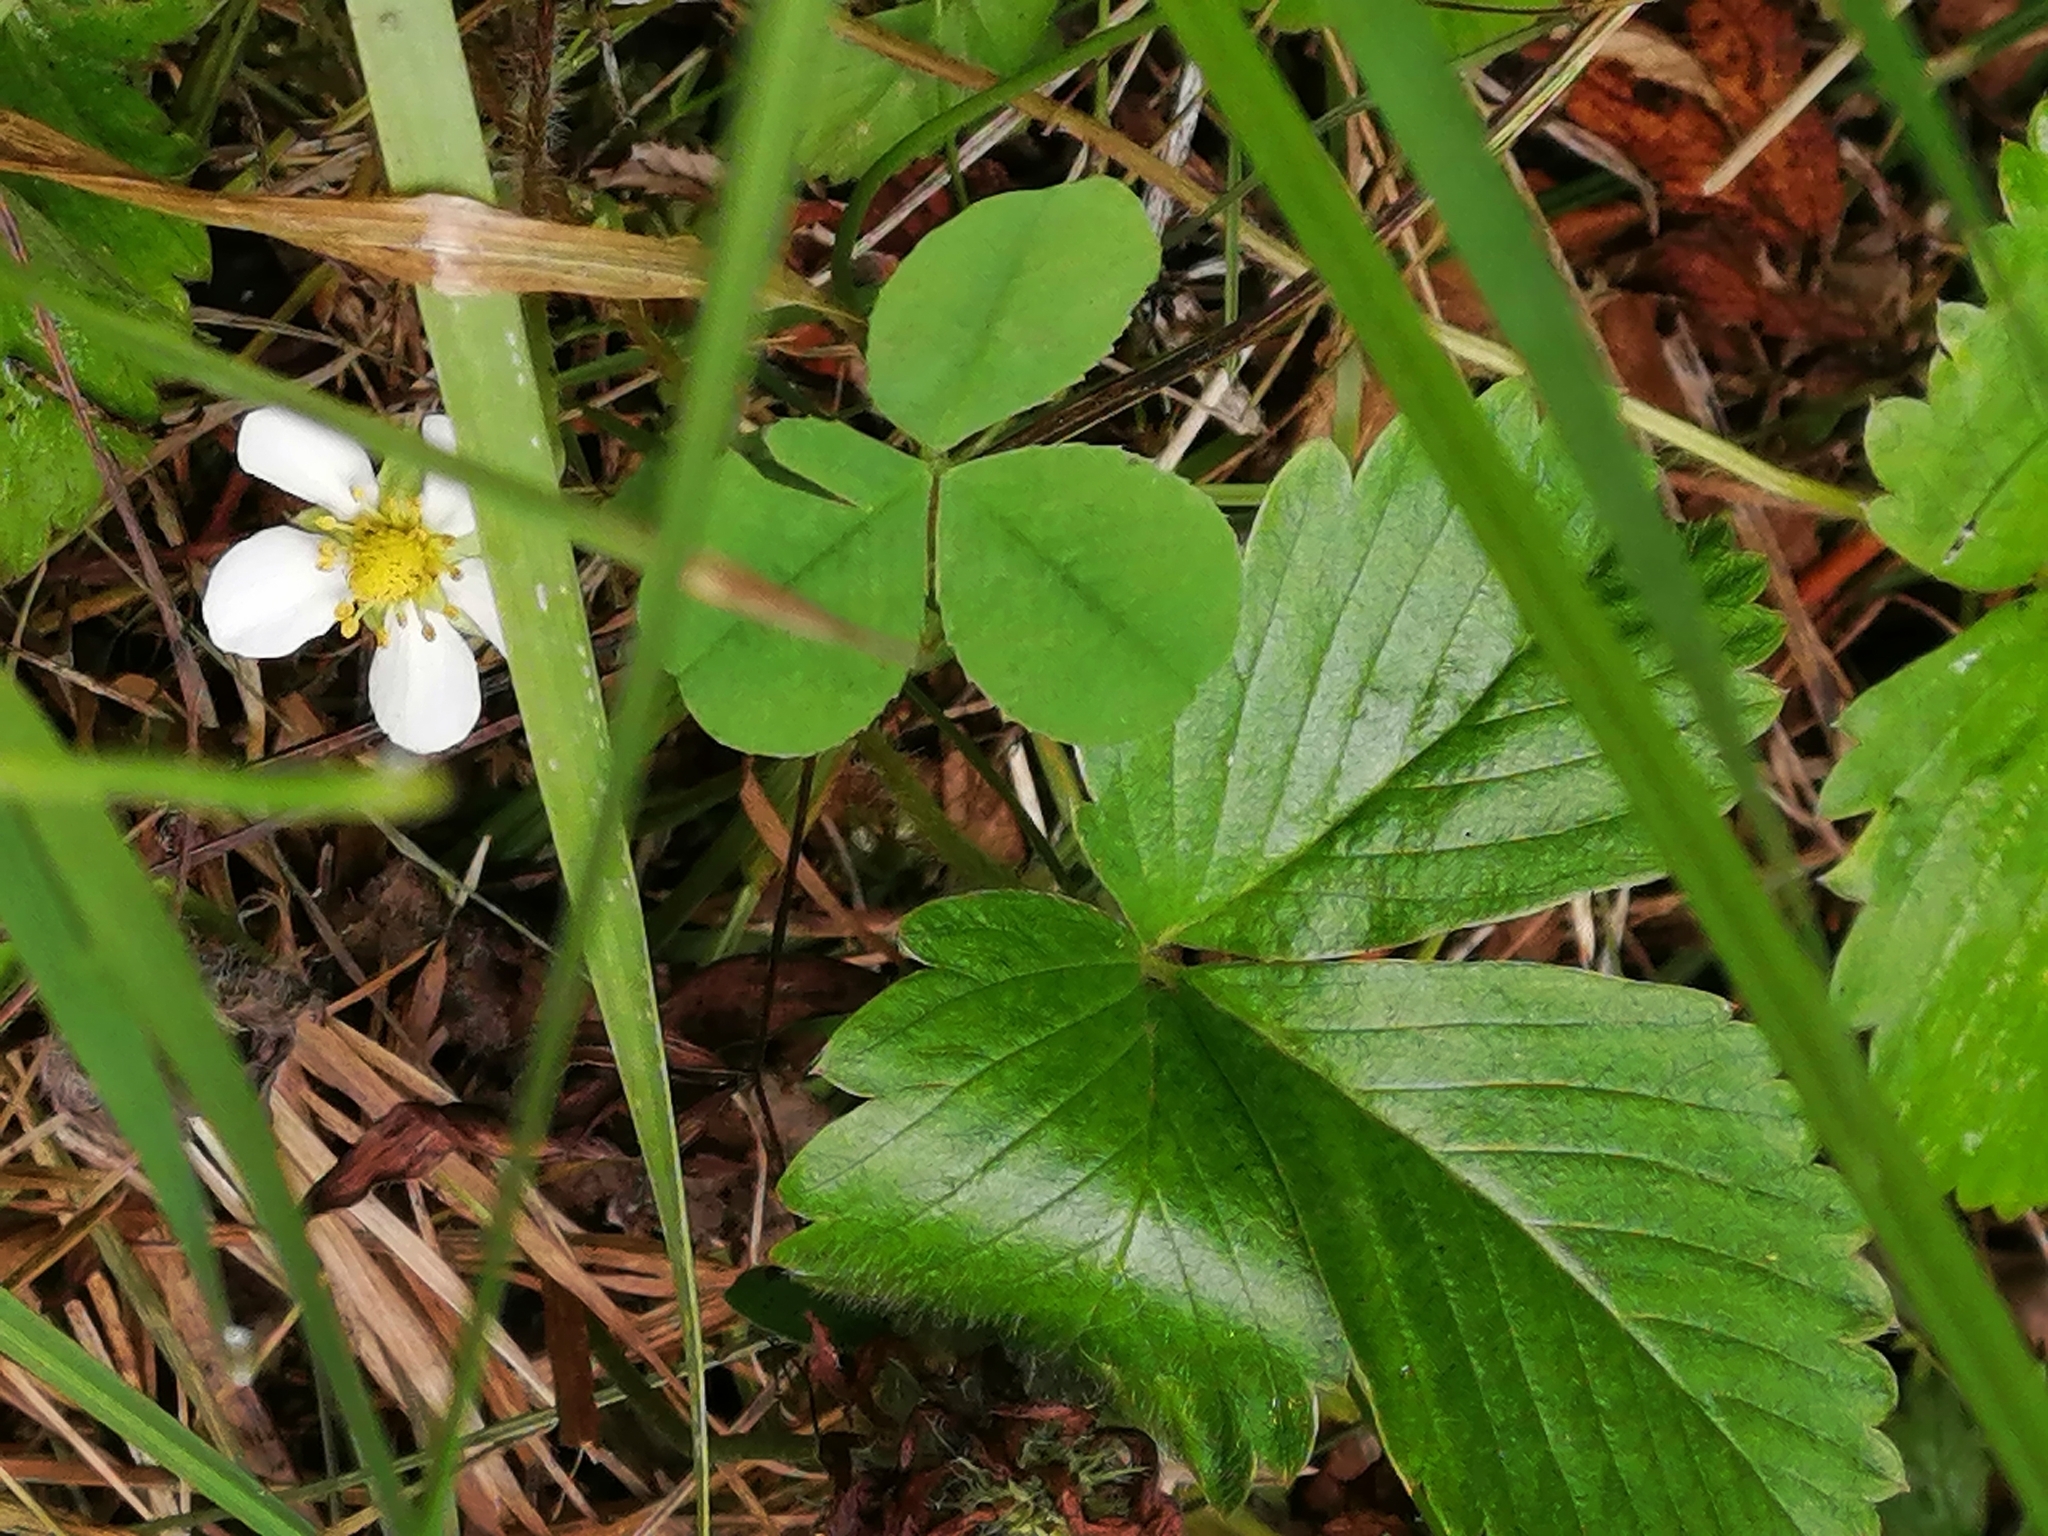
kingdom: Plantae
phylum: Tracheophyta
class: Magnoliopsida
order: Rosales
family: Rosaceae
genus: Fragaria
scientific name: Fragaria vesca
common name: Wild strawberry
